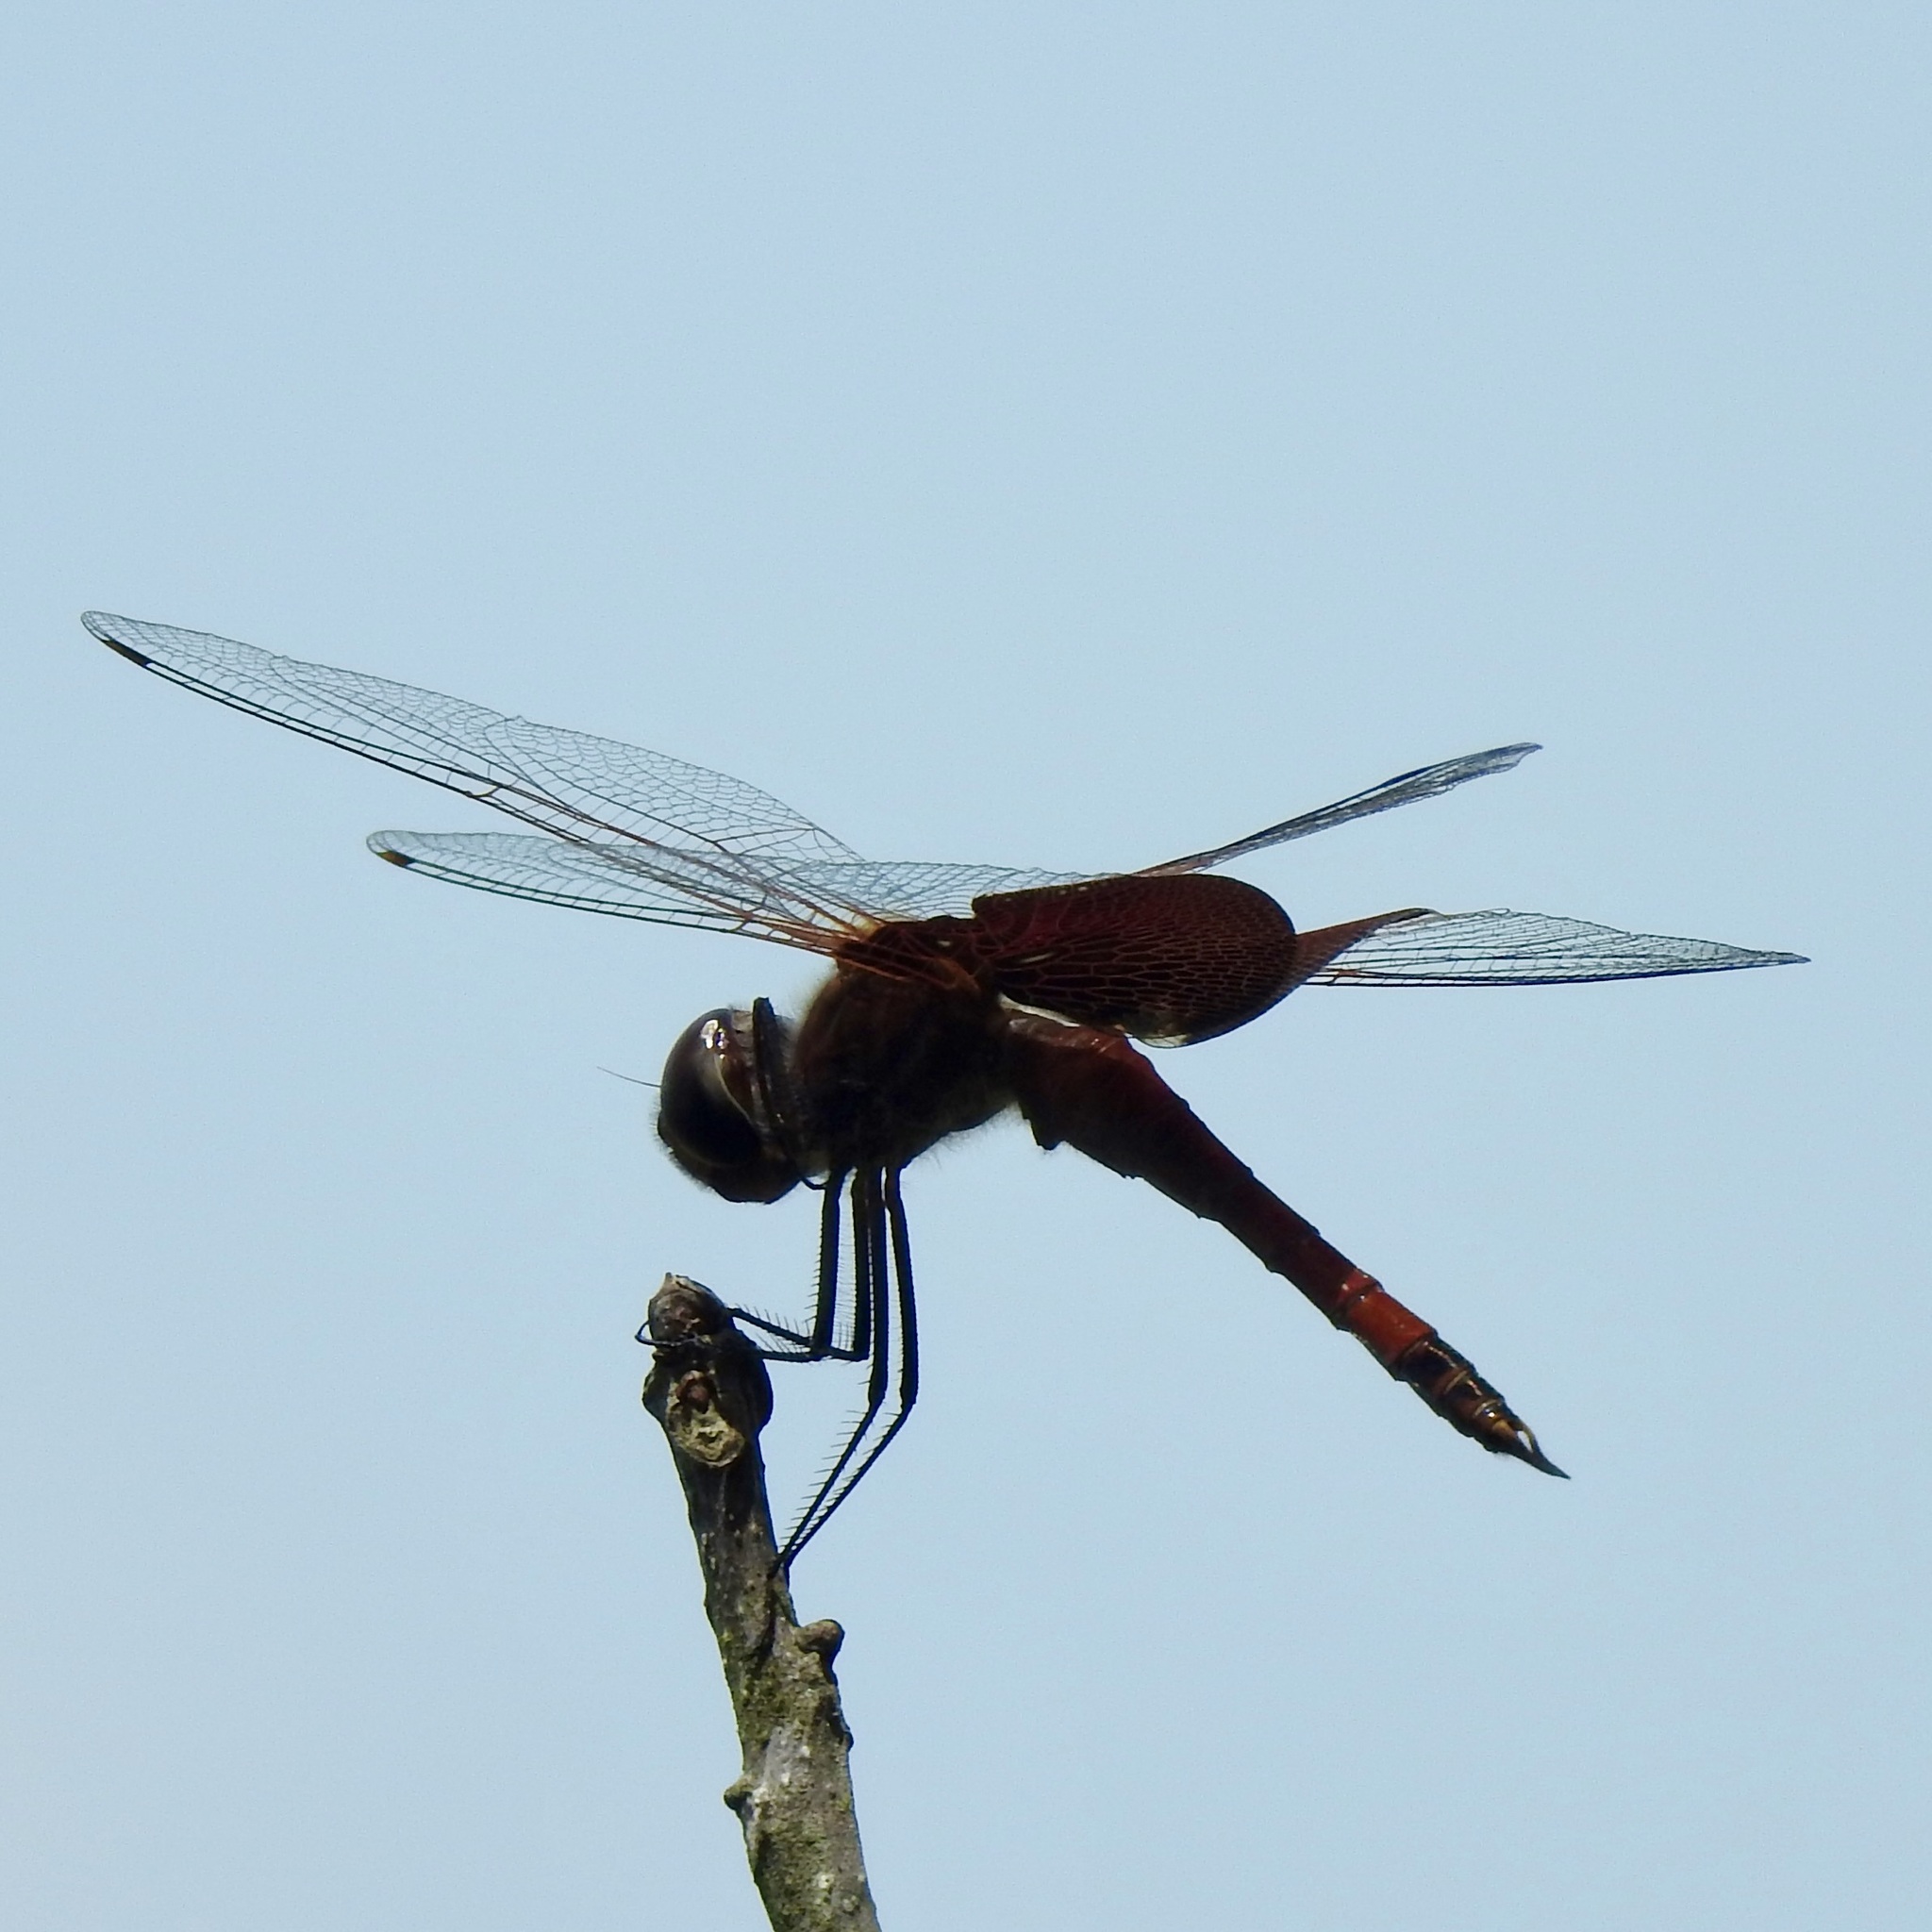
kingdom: Animalia
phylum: Arthropoda
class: Insecta
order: Odonata
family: Libellulidae
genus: Tramea
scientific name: Tramea carolina
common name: Carolina saddlebags
